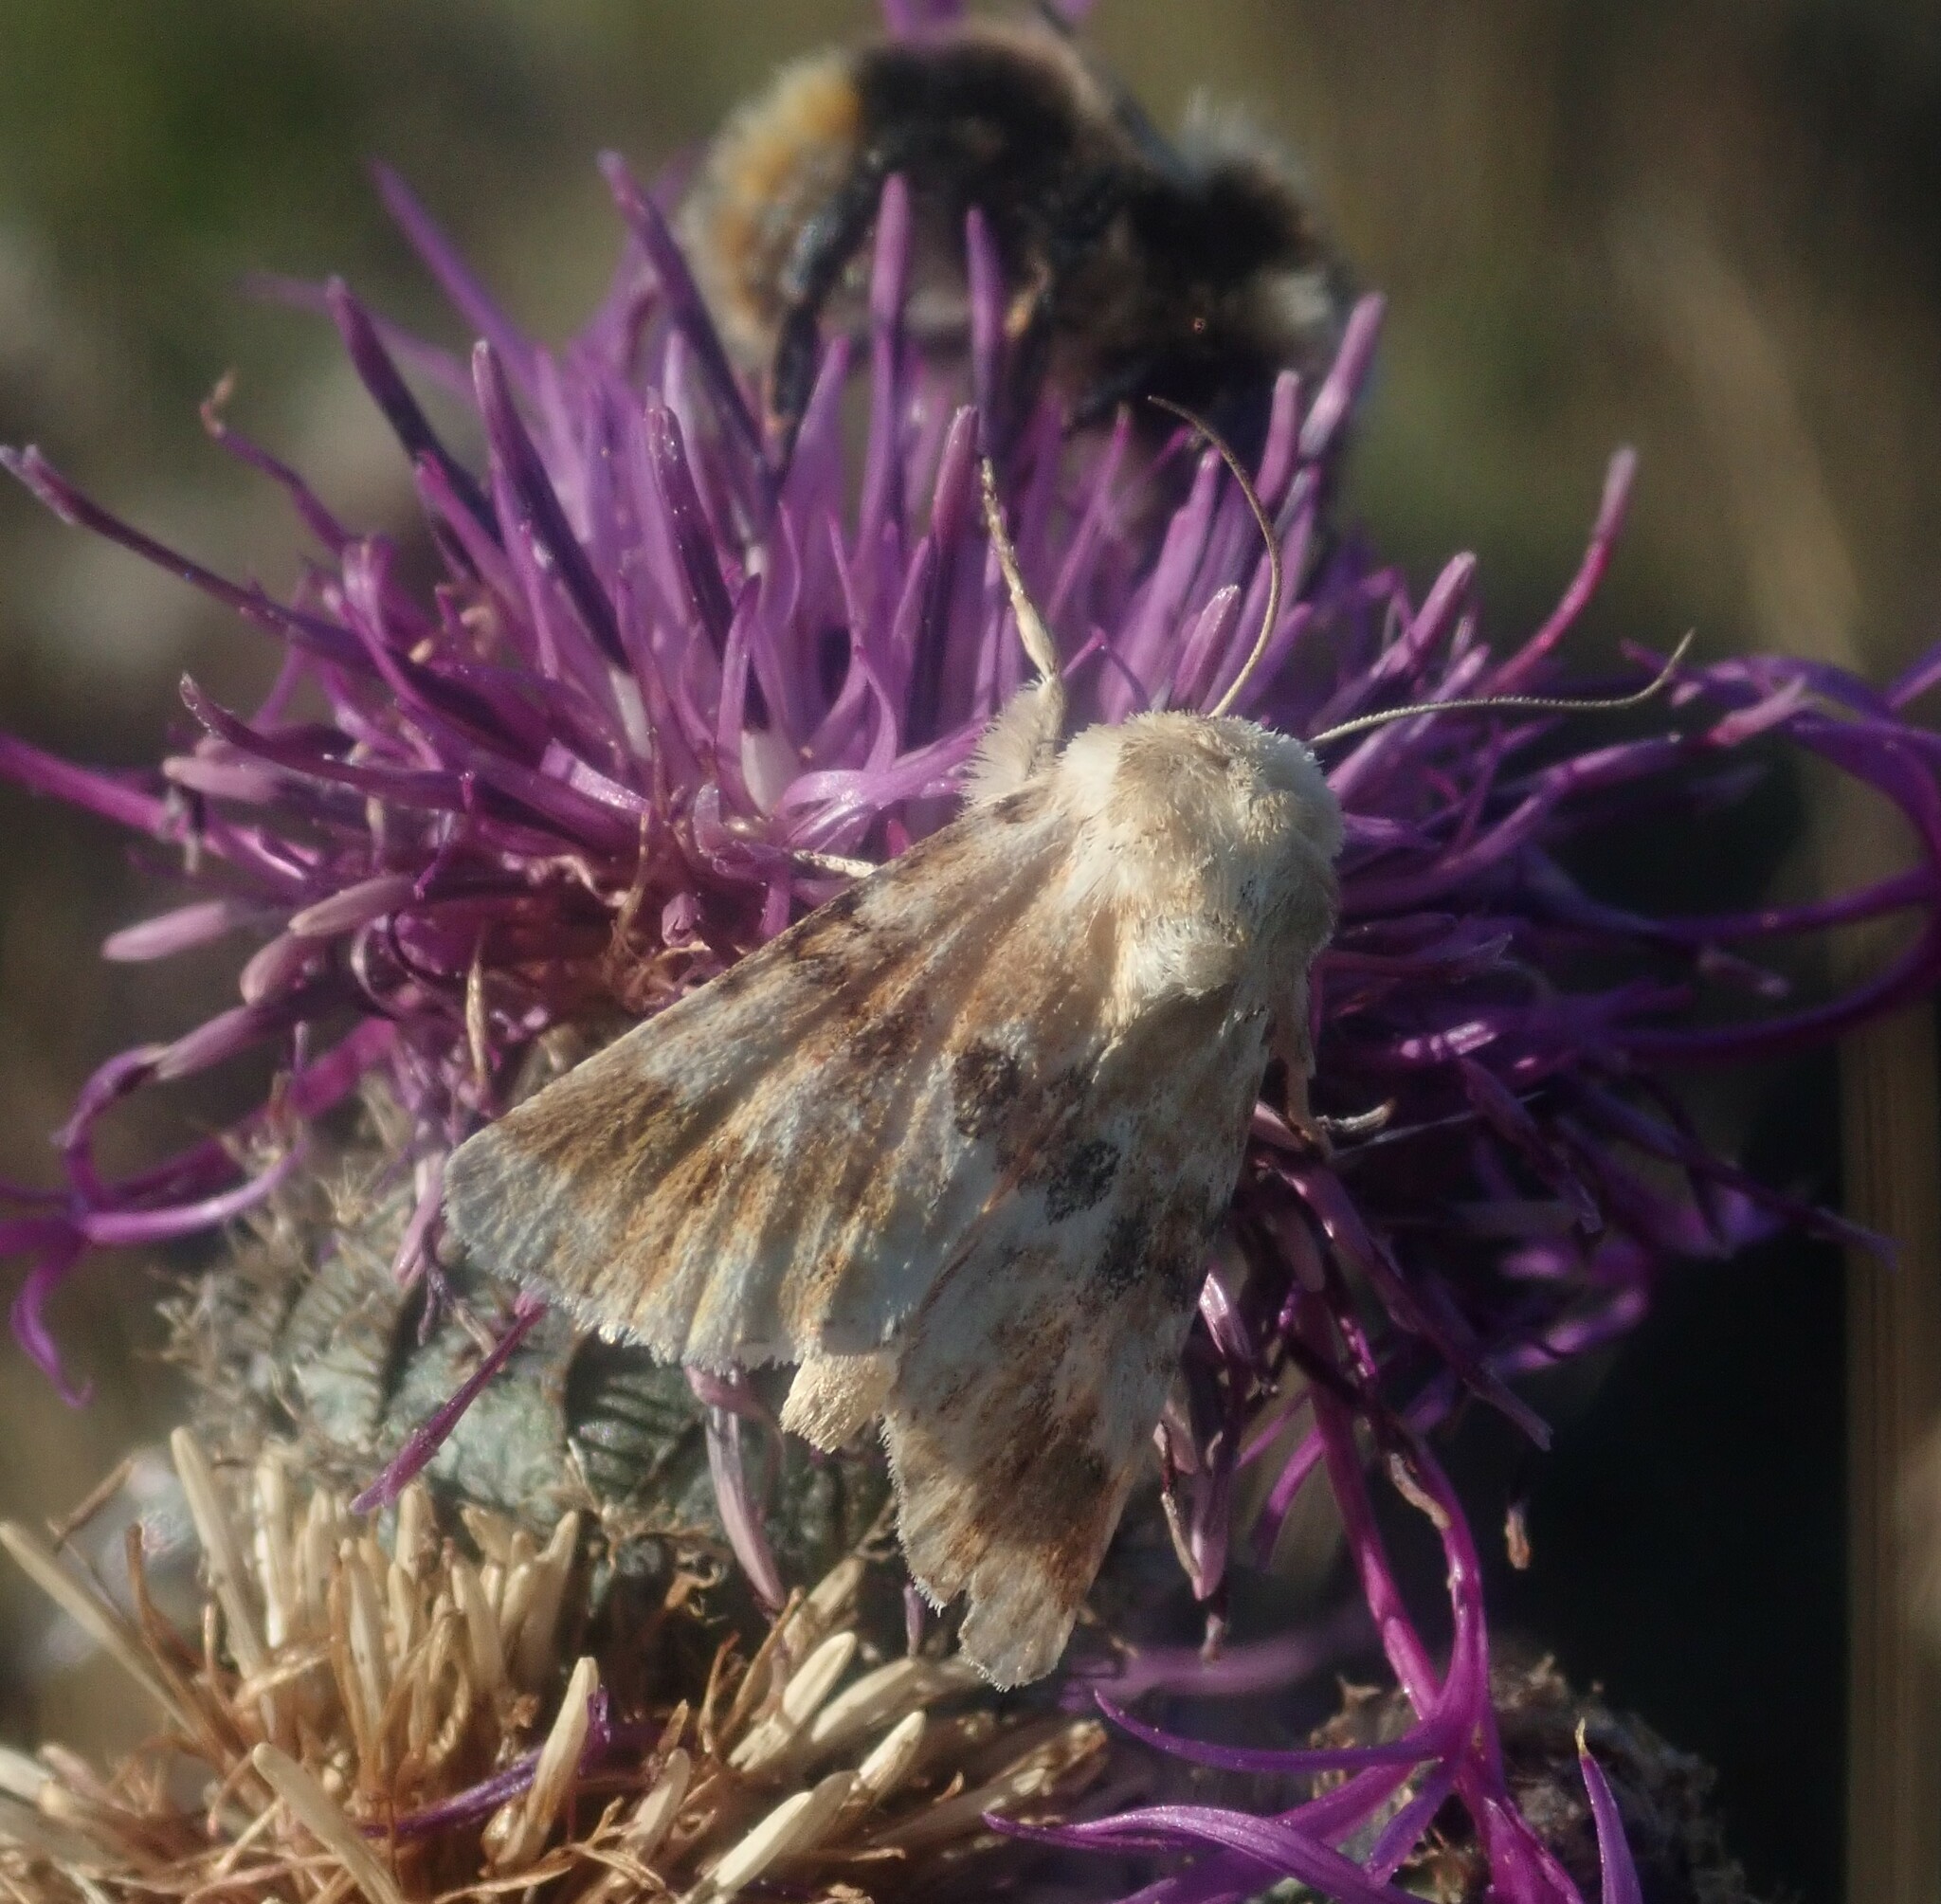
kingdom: Animalia
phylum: Arthropoda
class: Insecta
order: Lepidoptera
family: Noctuidae
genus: Eremobia
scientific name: Eremobia ochroleuca
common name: Dusky sallow
